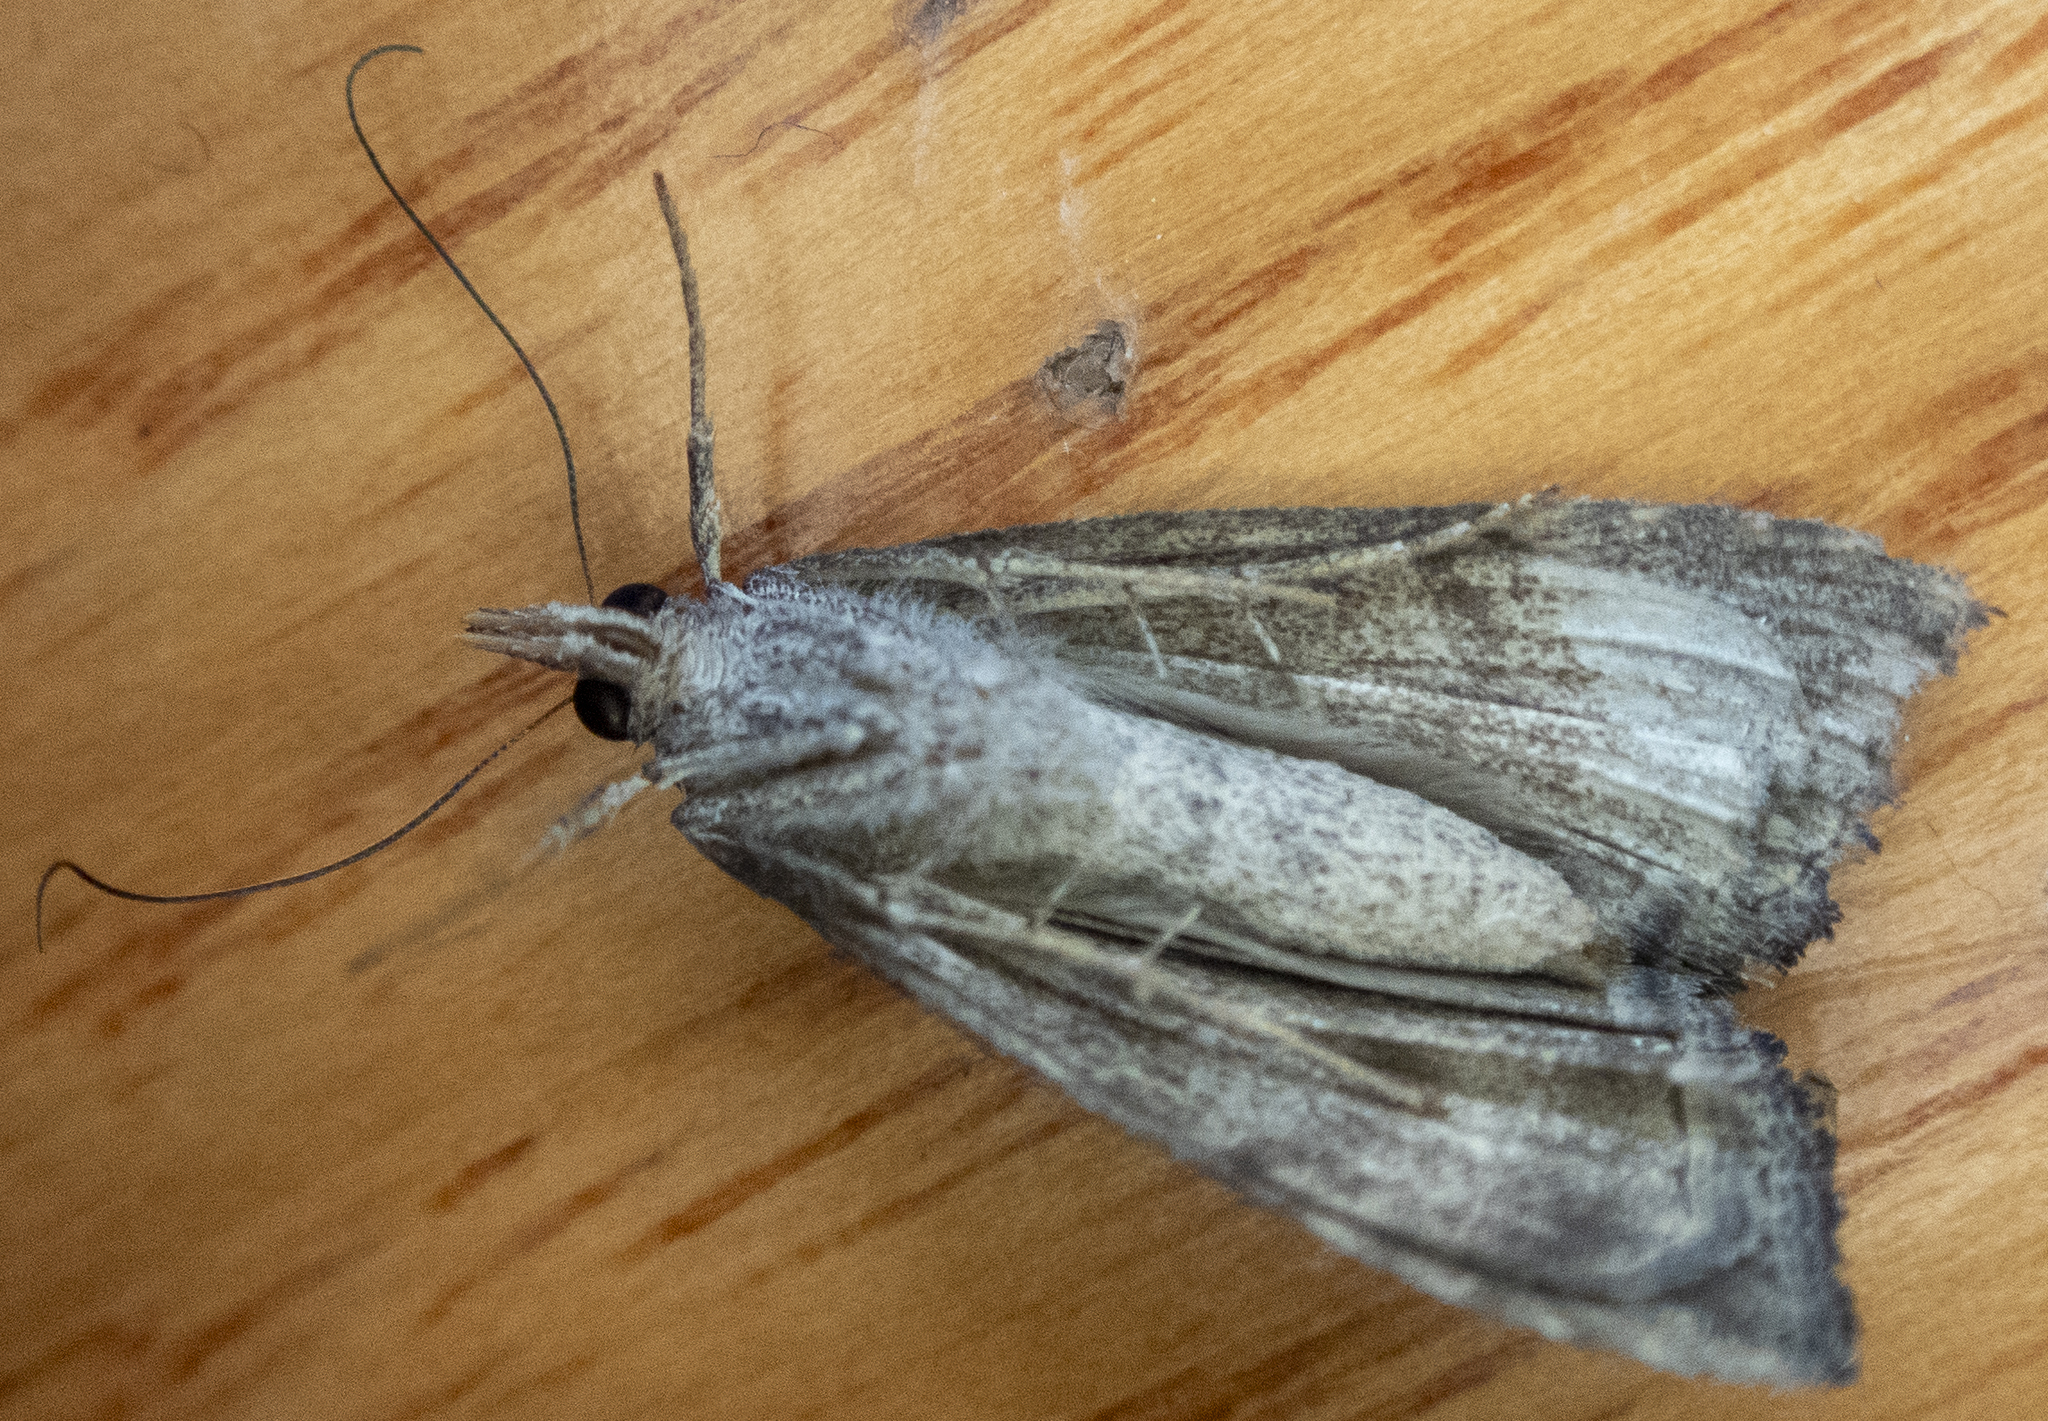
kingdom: Animalia
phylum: Arthropoda
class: Insecta
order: Lepidoptera
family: Erebidae
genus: Hypena
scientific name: Hypena scabra
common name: Green cloverworm
